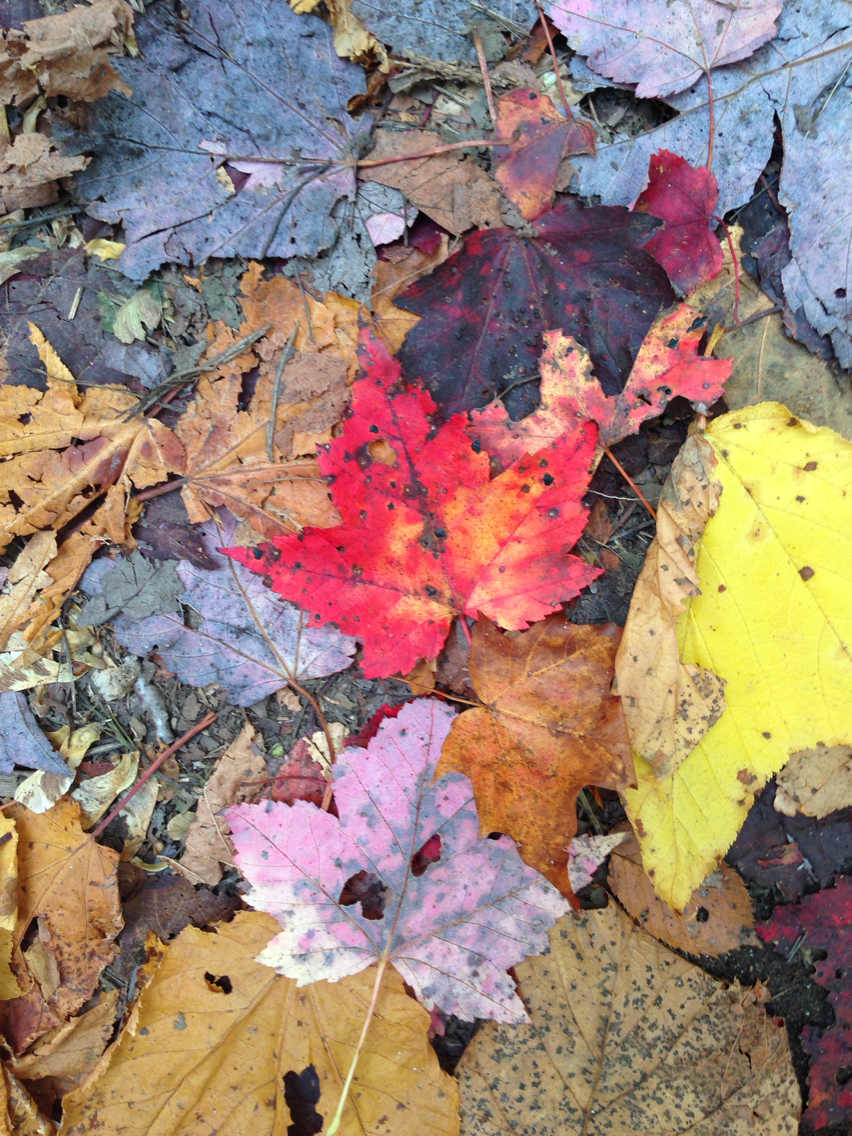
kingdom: Plantae
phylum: Tracheophyta
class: Magnoliopsida
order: Sapindales
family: Sapindaceae
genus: Acer
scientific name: Acer rubrum
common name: Red maple
